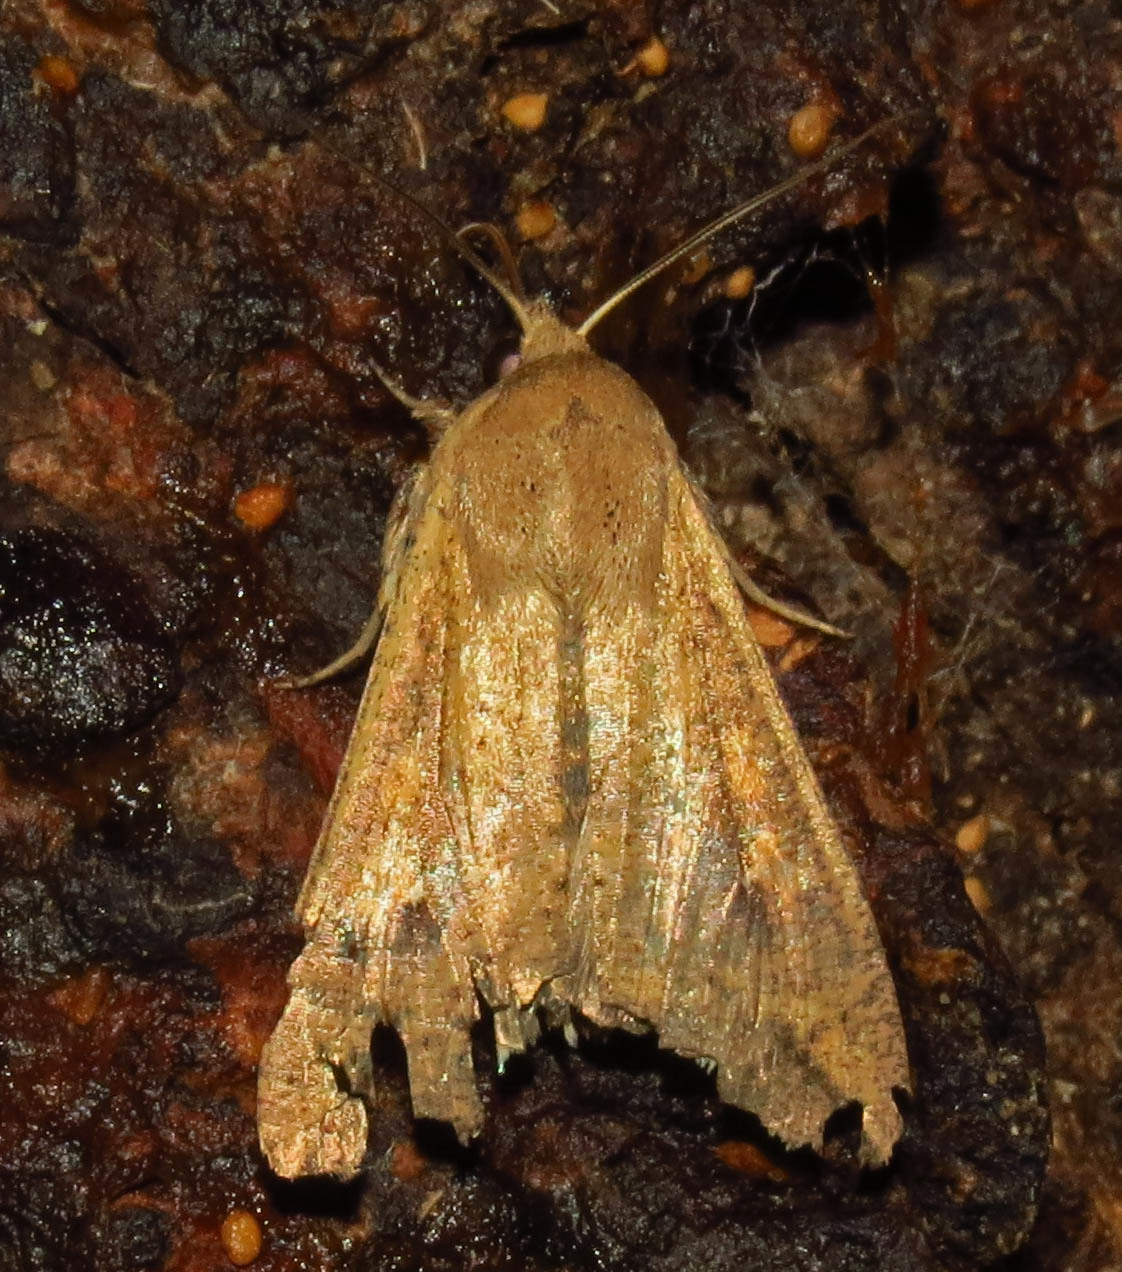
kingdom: Animalia
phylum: Arthropoda
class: Insecta
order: Lepidoptera
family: Noctuidae
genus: Mythimna
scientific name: Mythimna unipuncta
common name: White-speck
